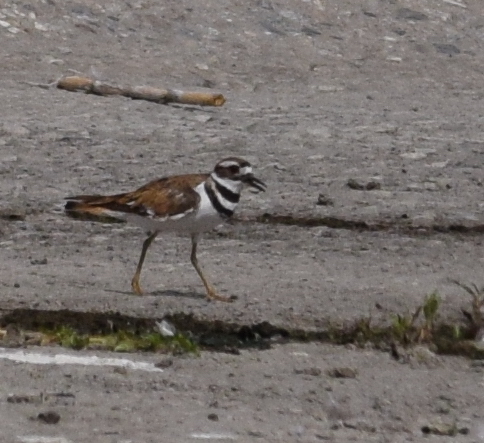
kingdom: Animalia
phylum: Chordata
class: Aves
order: Charadriiformes
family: Charadriidae
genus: Charadrius
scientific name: Charadrius vociferus
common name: Killdeer
